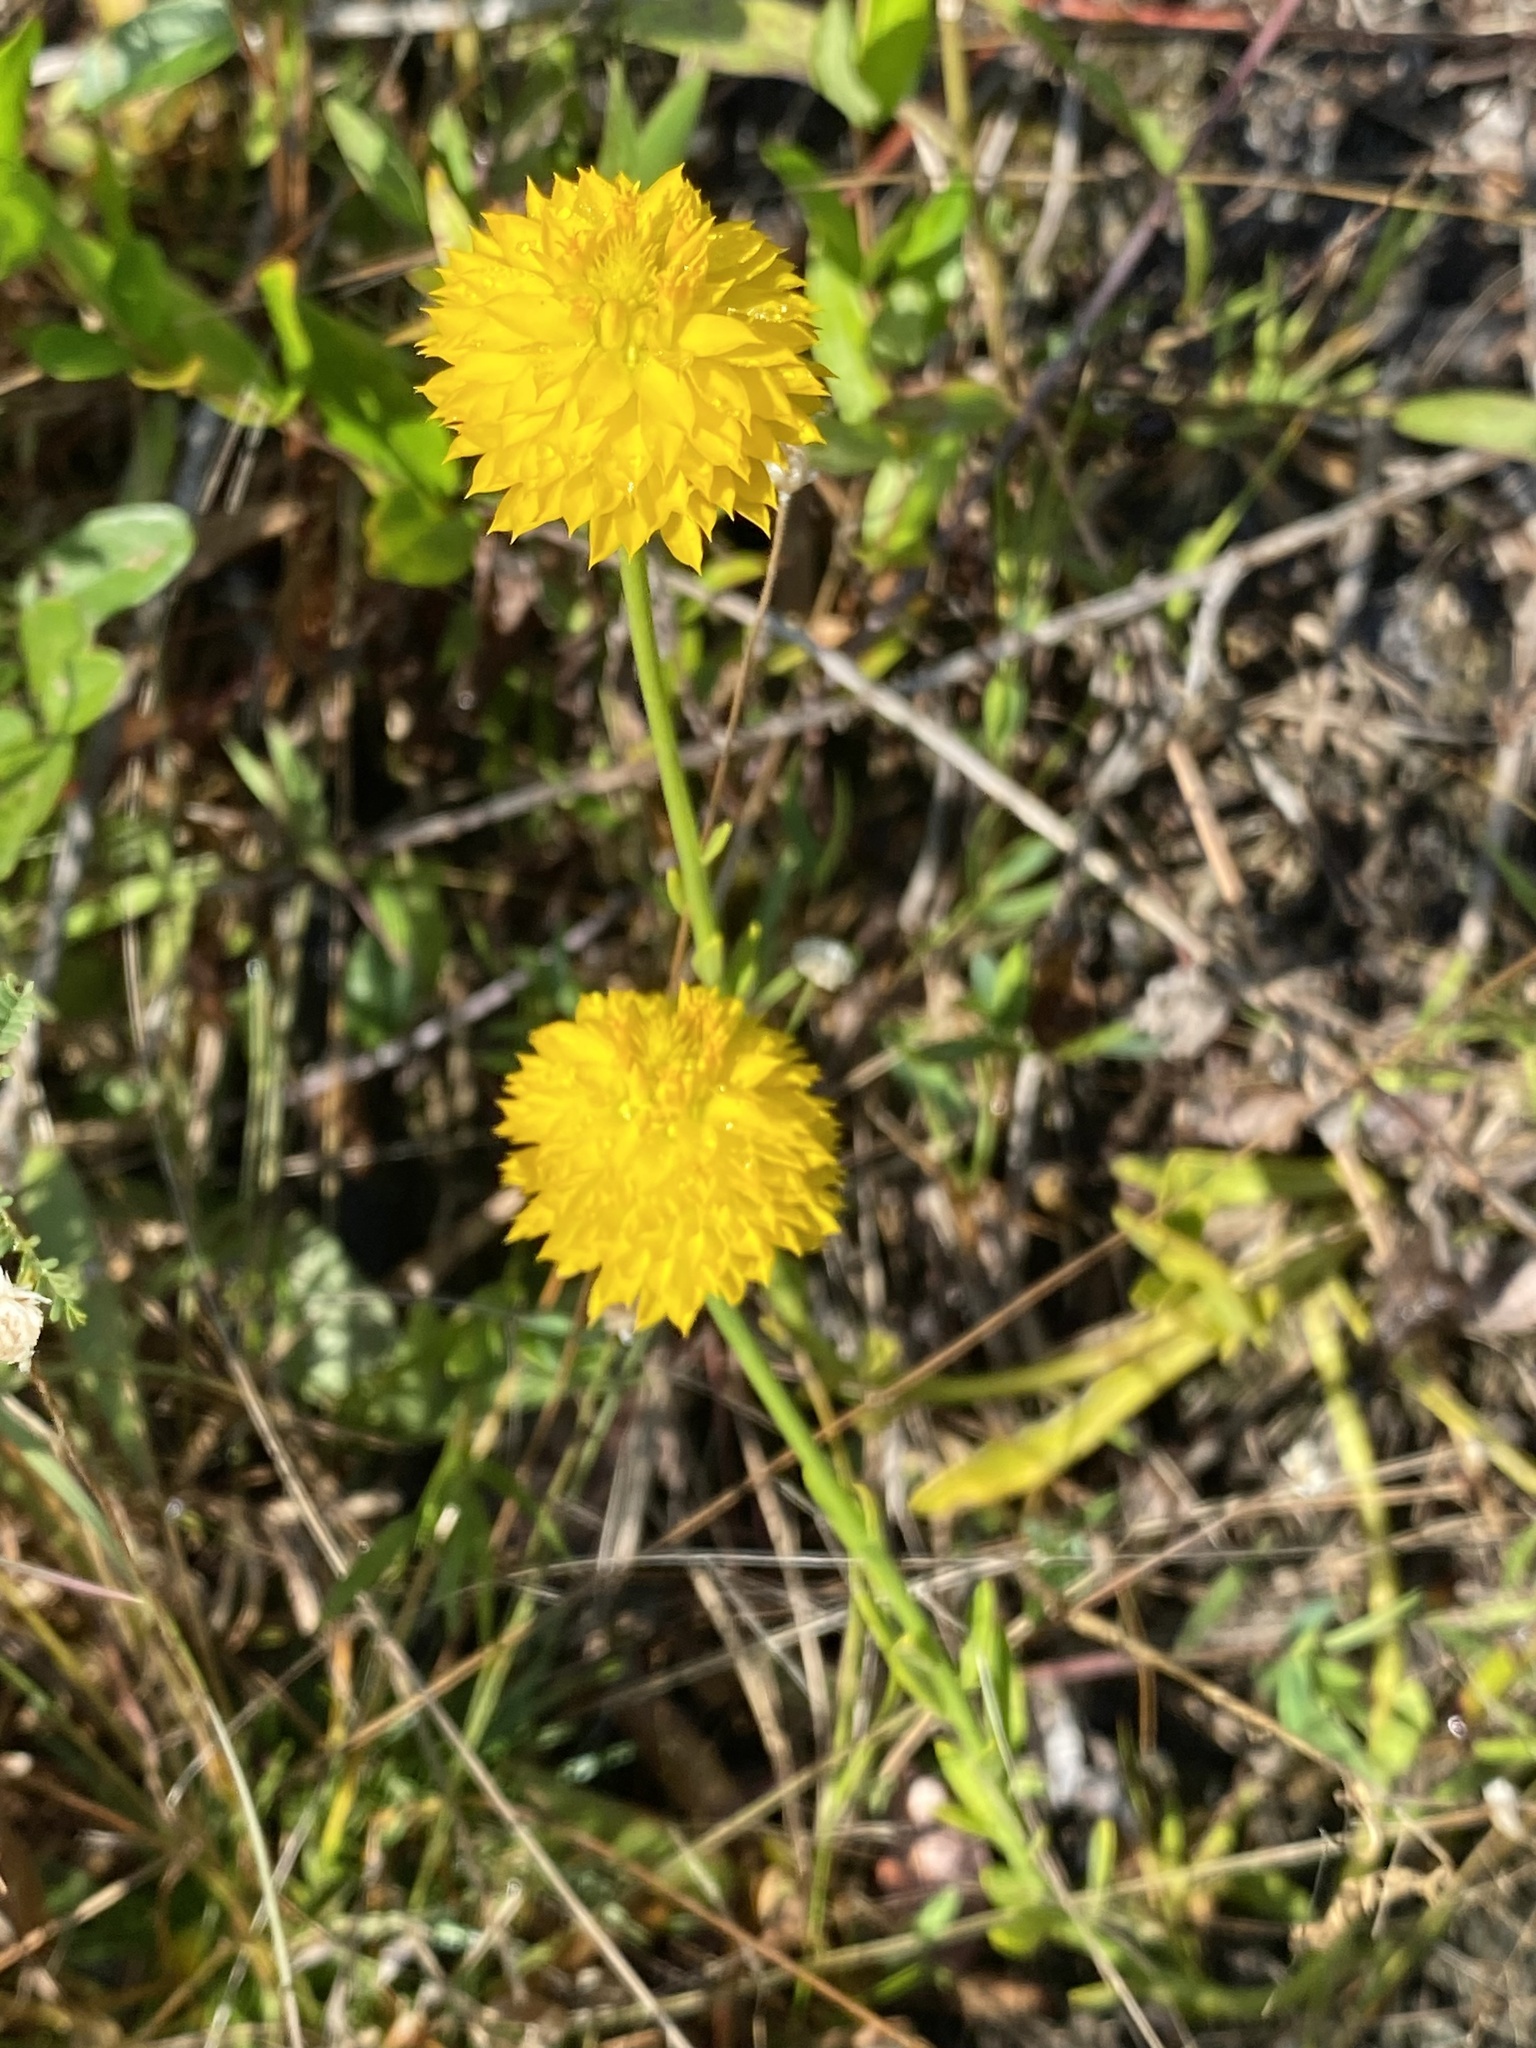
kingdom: Plantae
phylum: Tracheophyta
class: Magnoliopsida
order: Fabales
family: Polygalaceae
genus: Polygala
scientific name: Polygala rugelii
